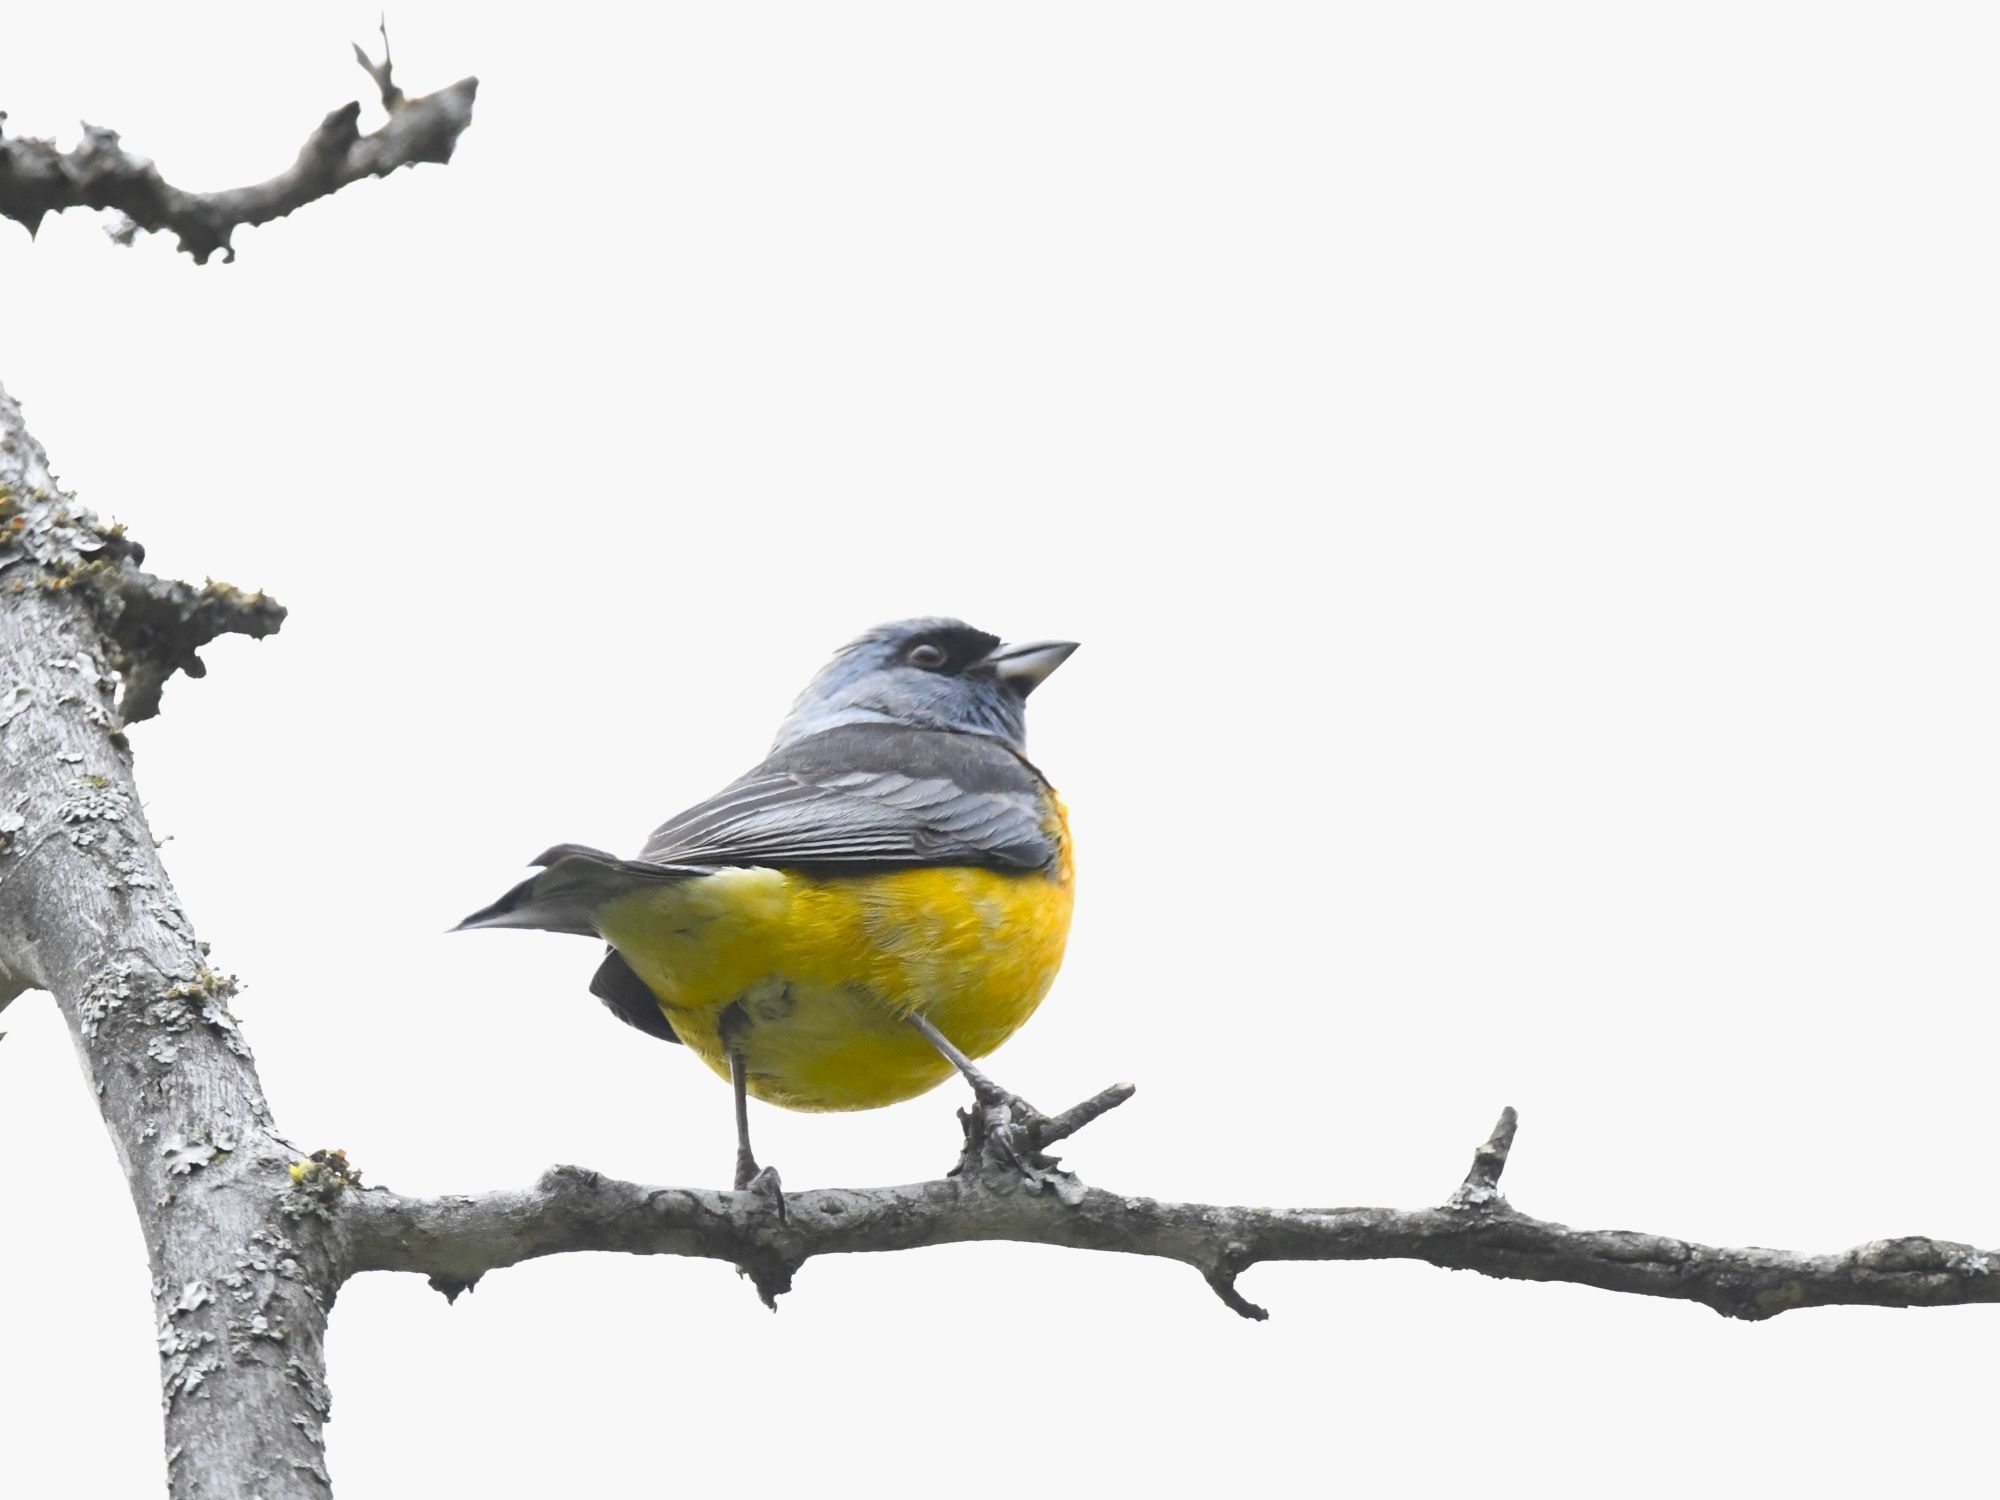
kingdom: Animalia
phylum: Chordata
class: Aves
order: Passeriformes
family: Thraupidae
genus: Rauenia
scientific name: Rauenia bonariensis
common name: Blue-and-yellow tanager
